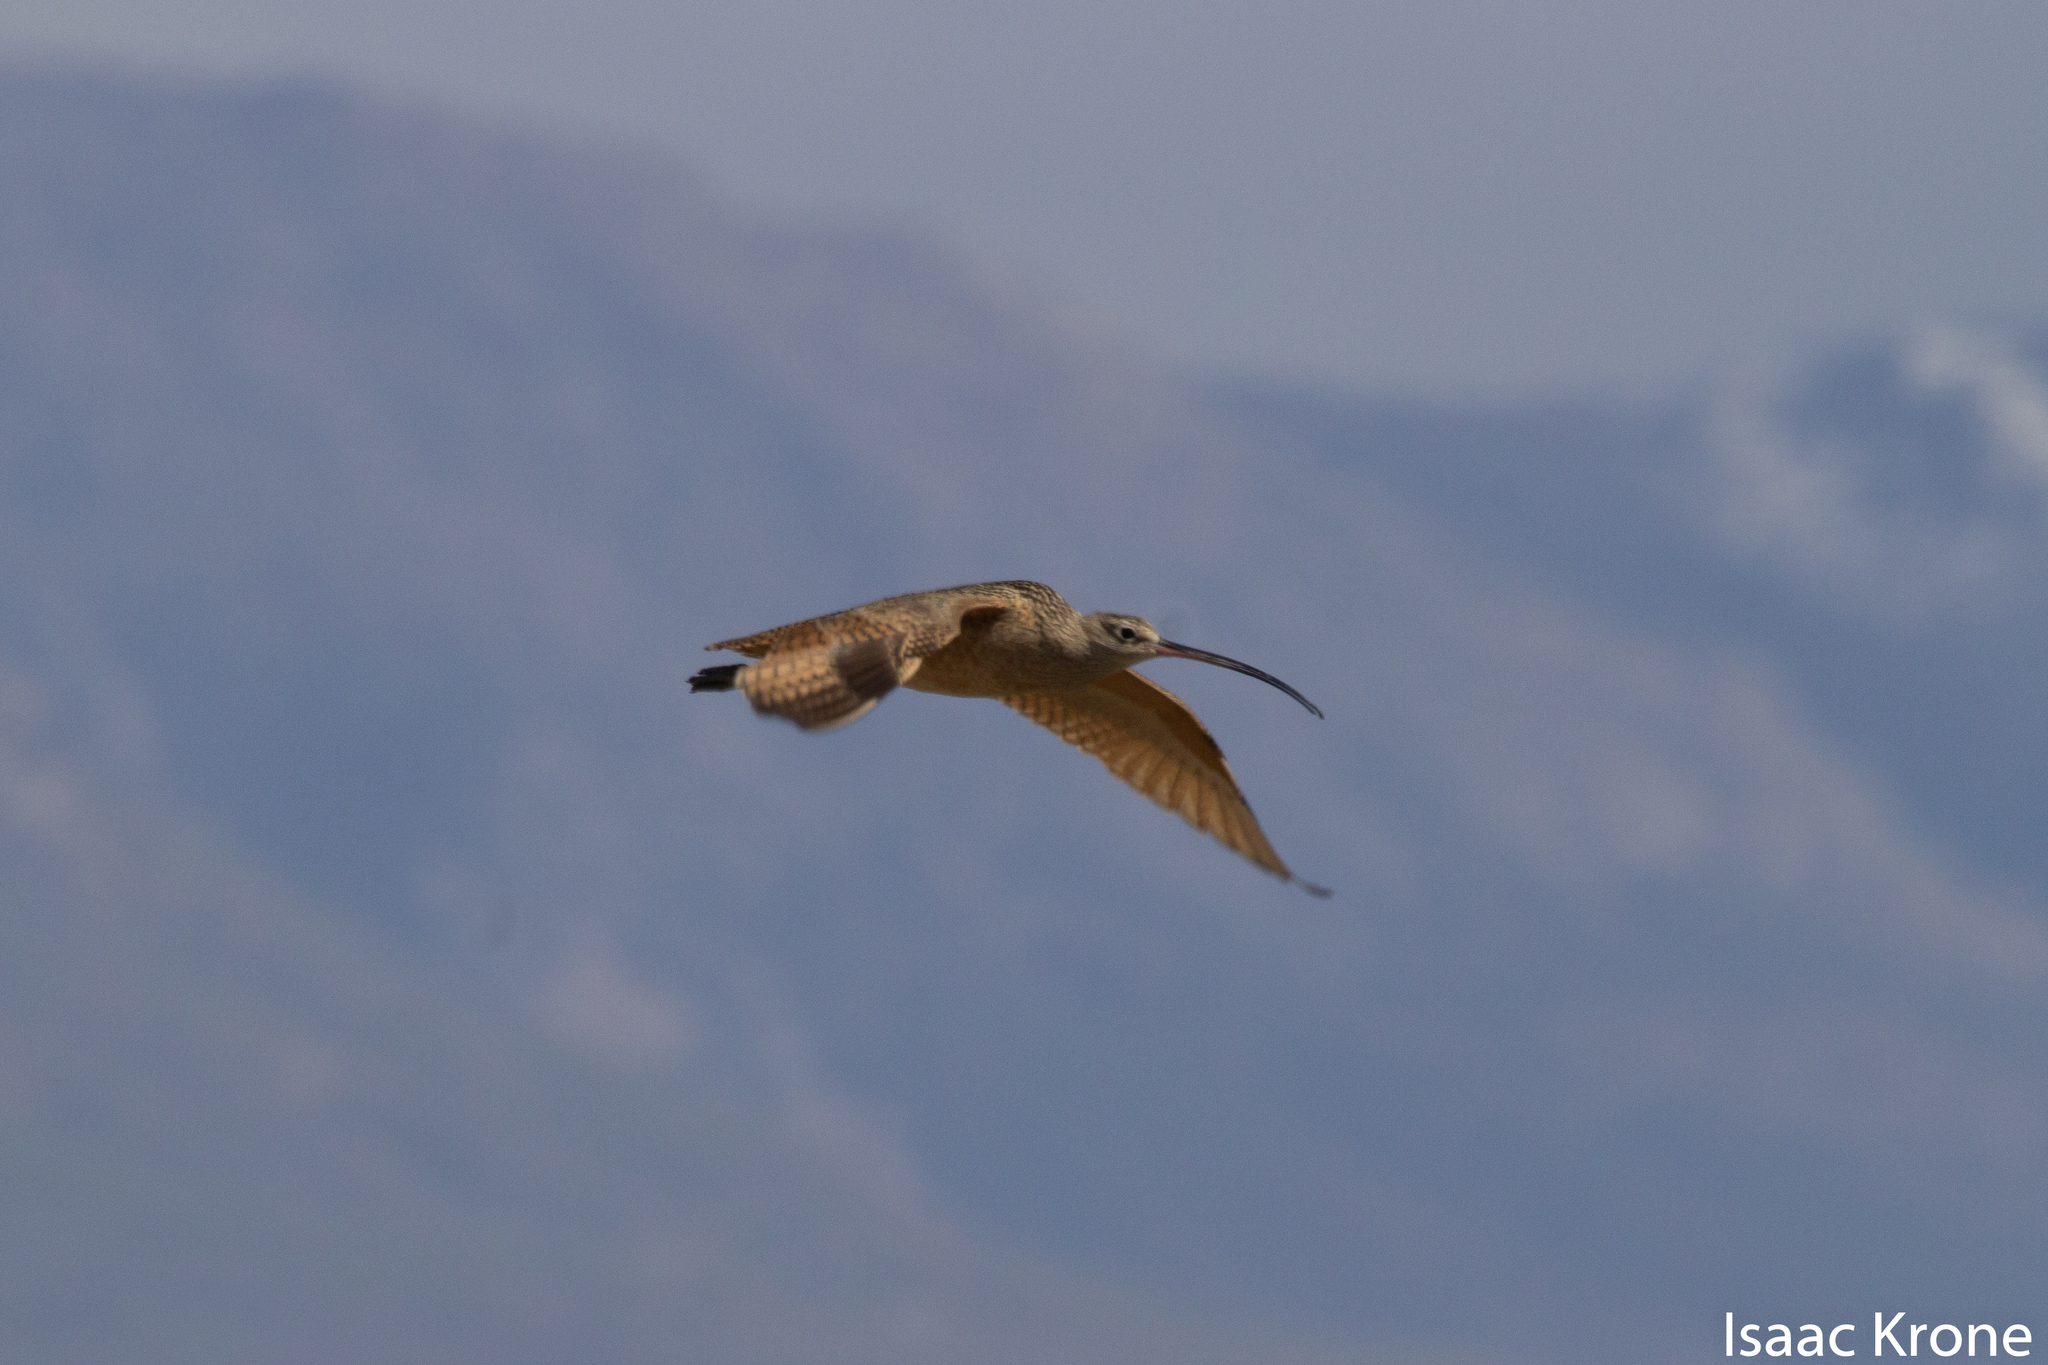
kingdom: Animalia
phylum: Chordata
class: Aves
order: Charadriiformes
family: Scolopacidae
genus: Numenius
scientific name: Numenius americanus
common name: Long-billed curlew
